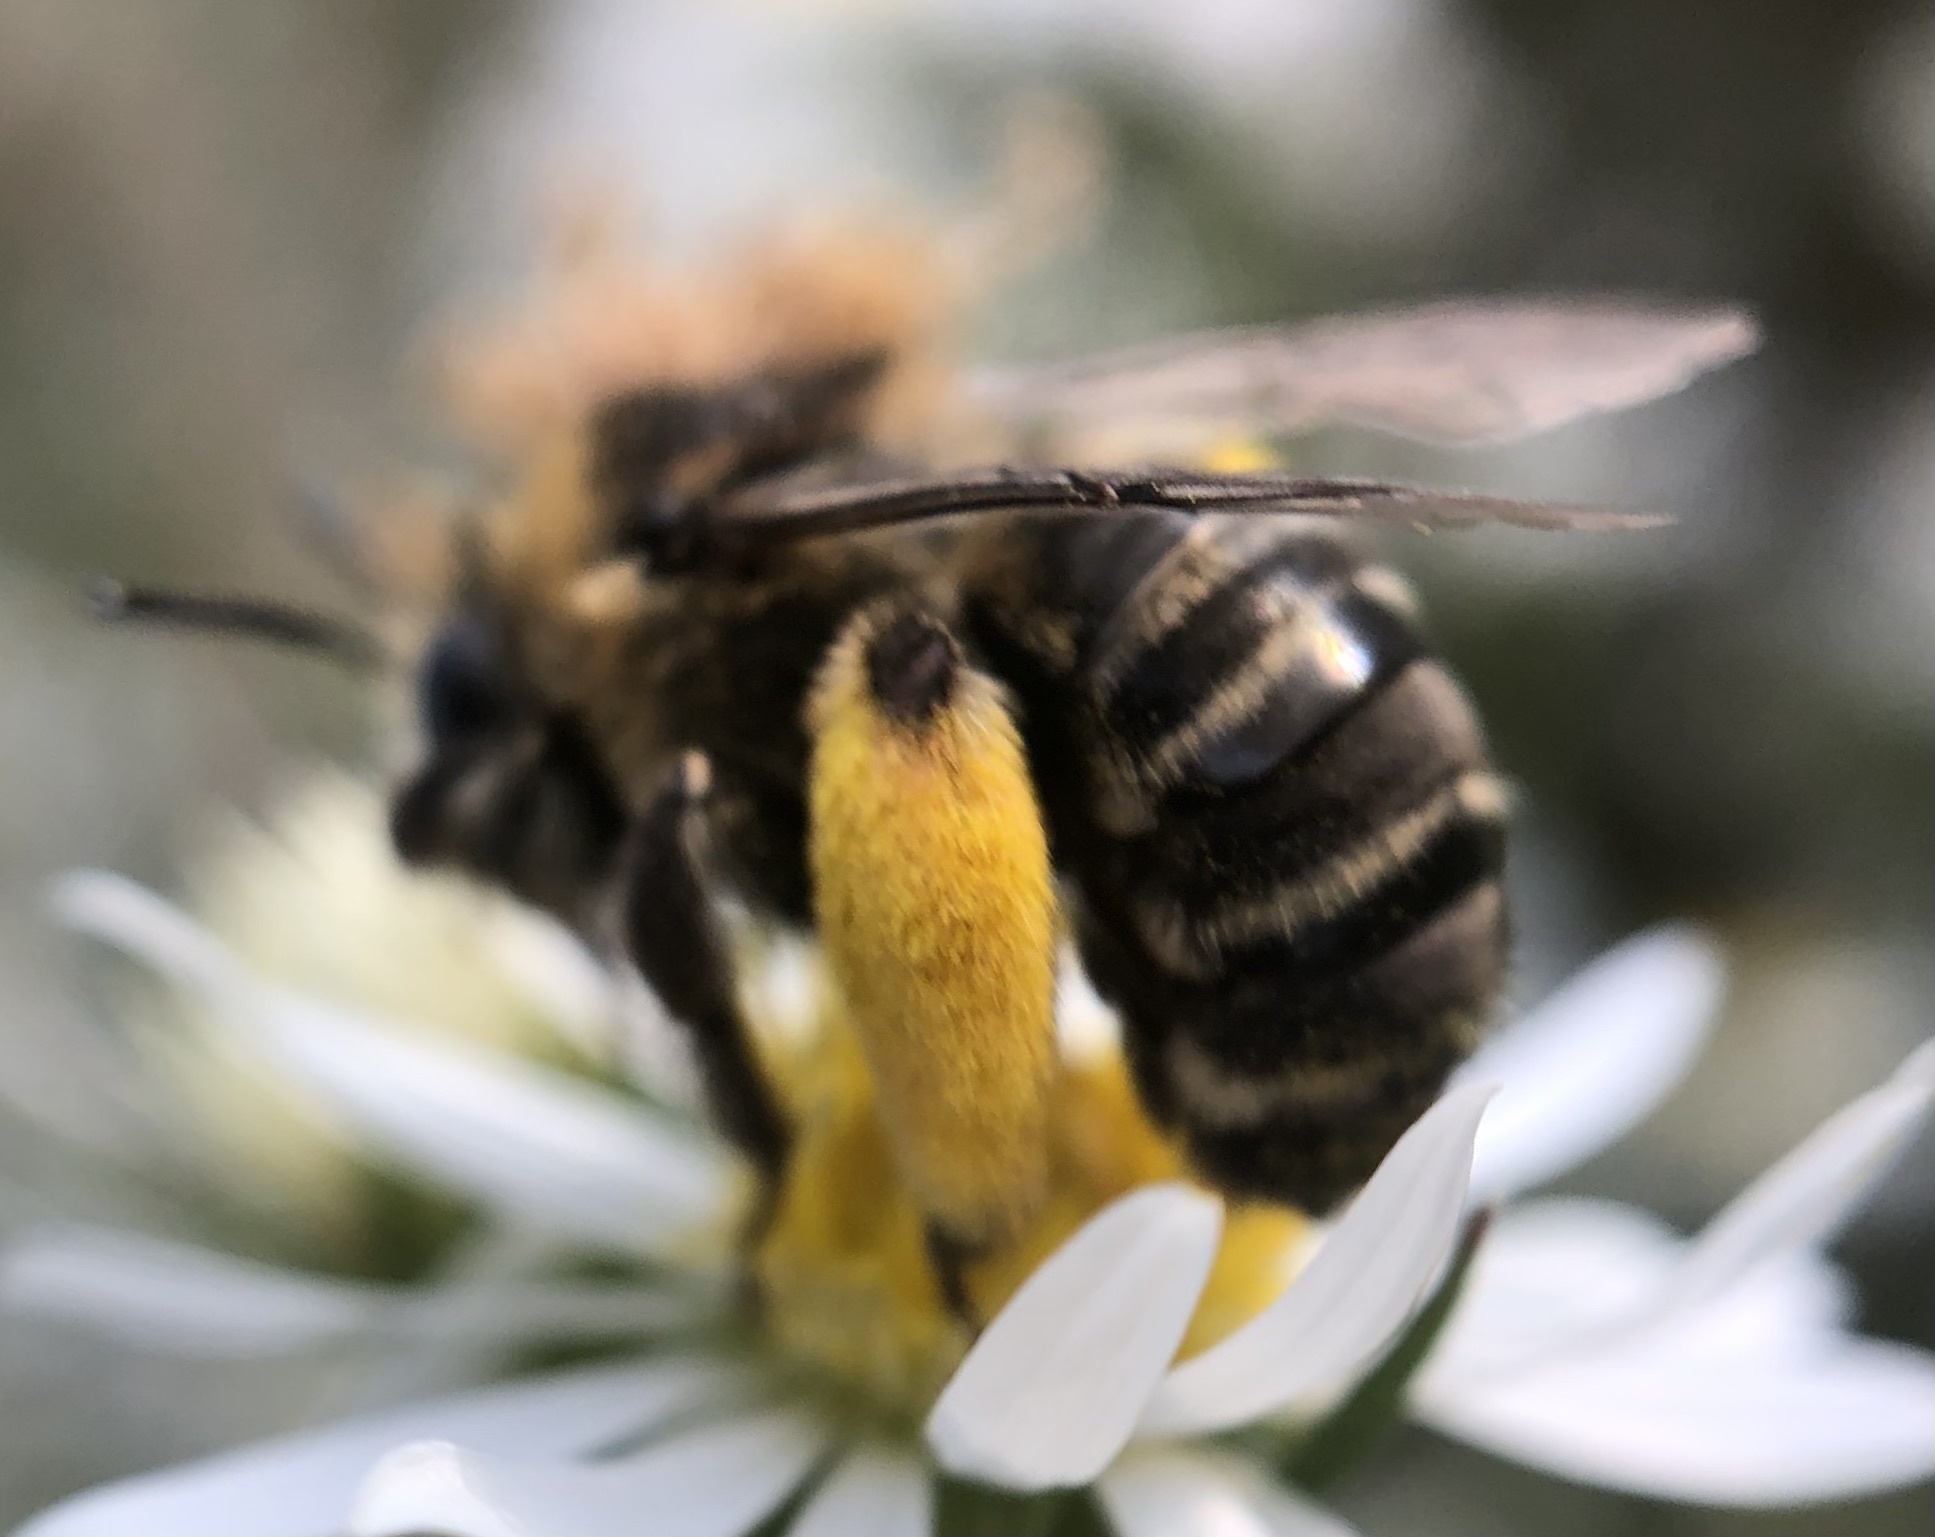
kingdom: Animalia
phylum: Arthropoda
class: Insecta
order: Hymenoptera
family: Apidae
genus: Melissodes
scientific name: Melissodes druriellus
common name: Drury's long-horned bee
